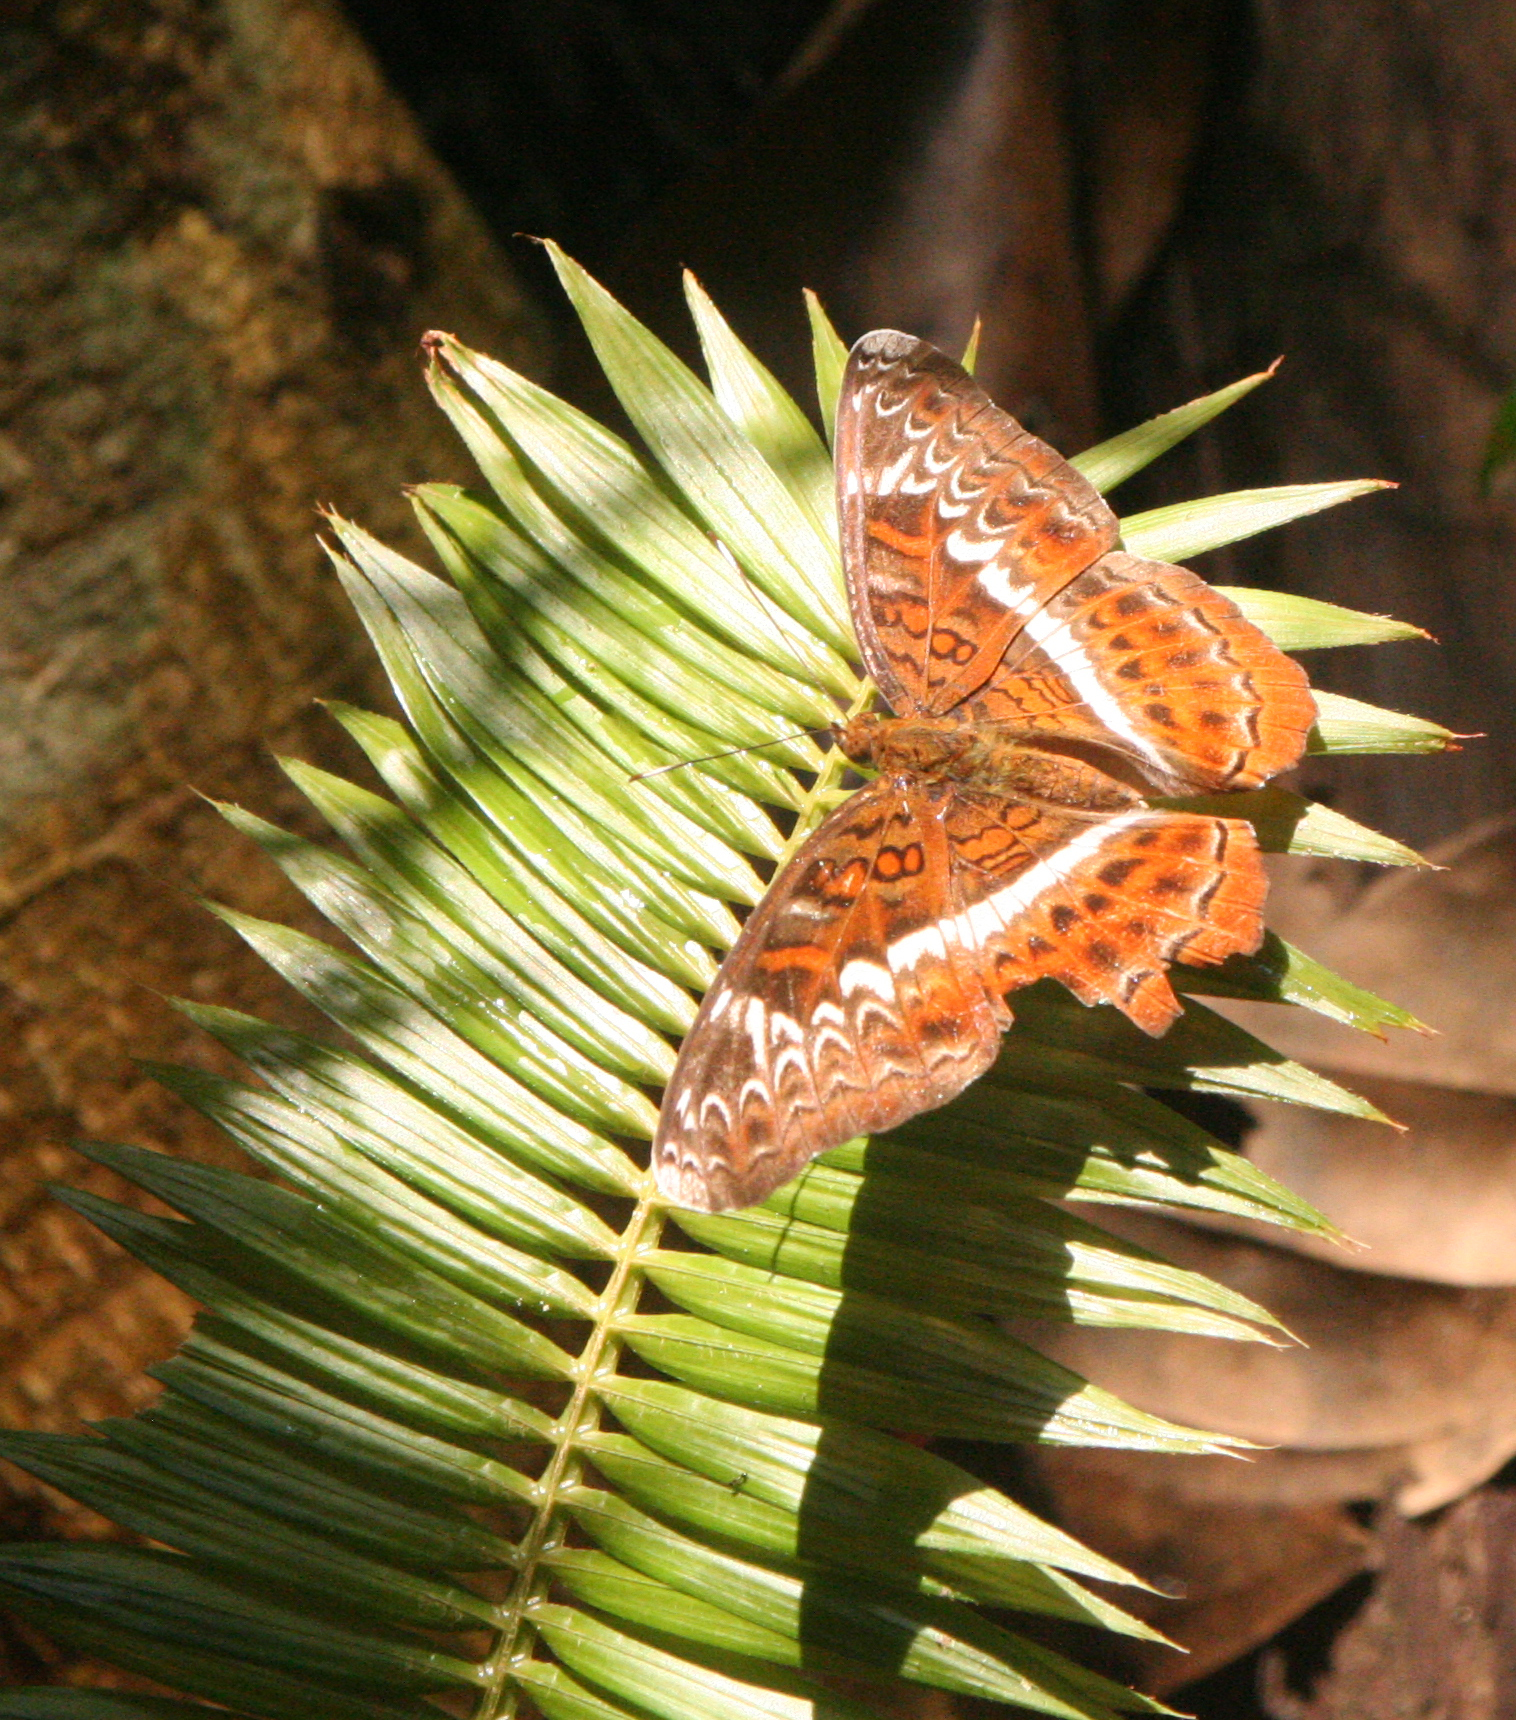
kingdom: Animalia
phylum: Arthropoda
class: Insecta
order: Lepidoptera
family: Nymphalidae
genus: Lebadea
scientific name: Lebadea martha
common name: Knight
